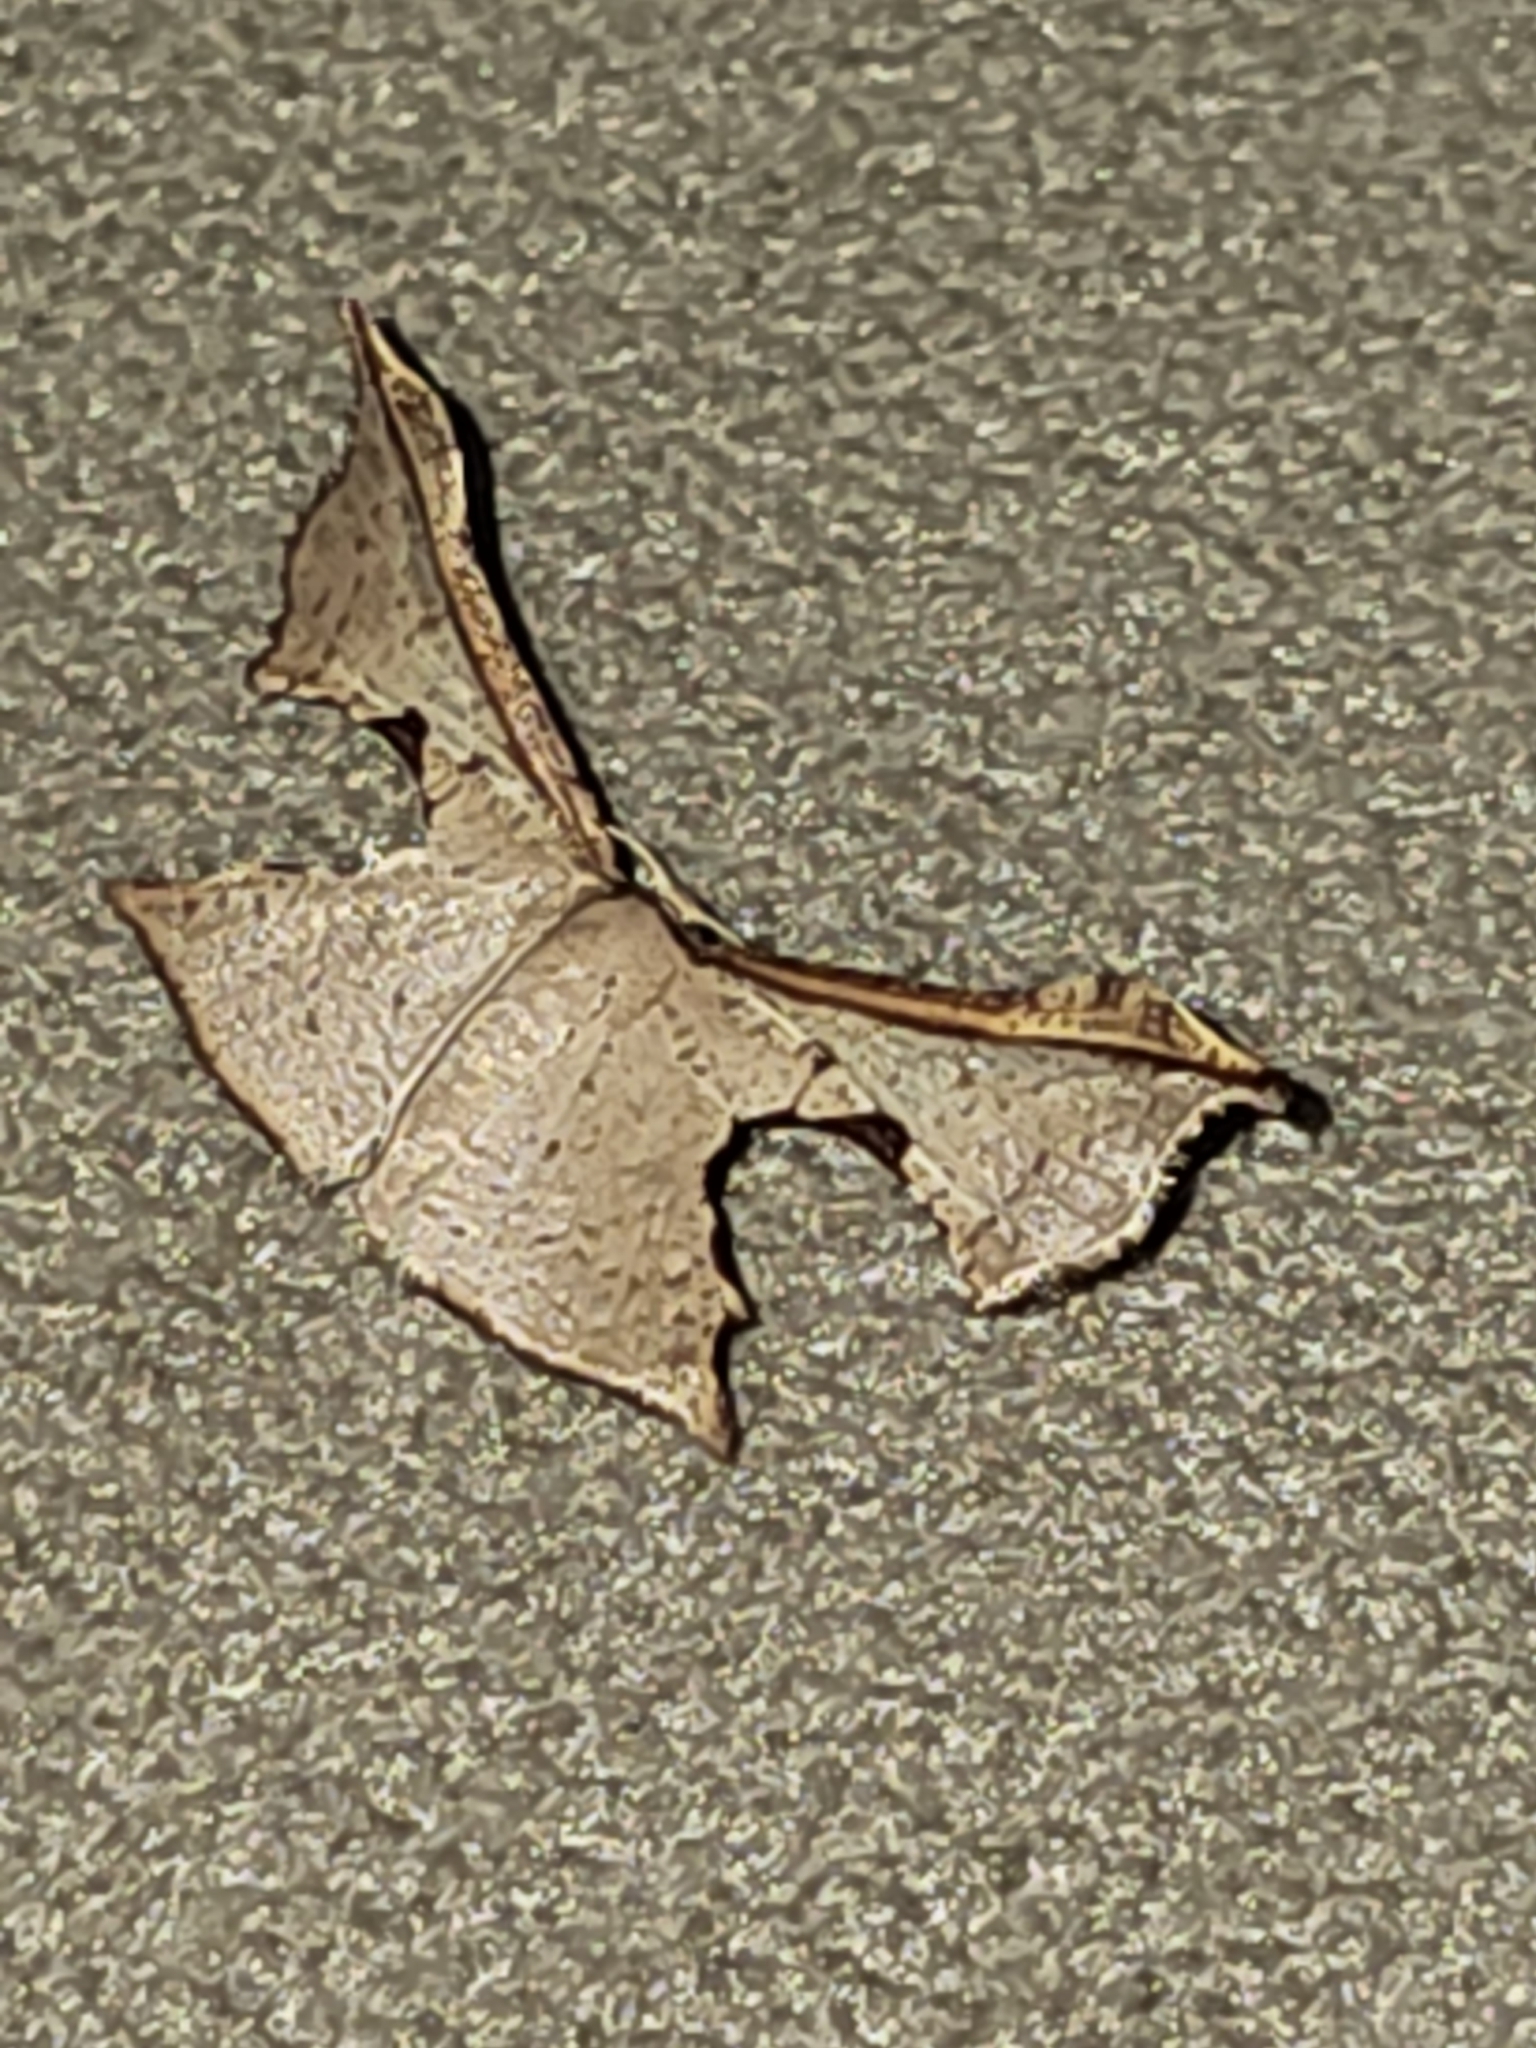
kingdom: Animalia
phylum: Arthropoda
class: Insecta
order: Lepidoptera
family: Thyrididae
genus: Orneostoma
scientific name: Orneostoma subpulchra
